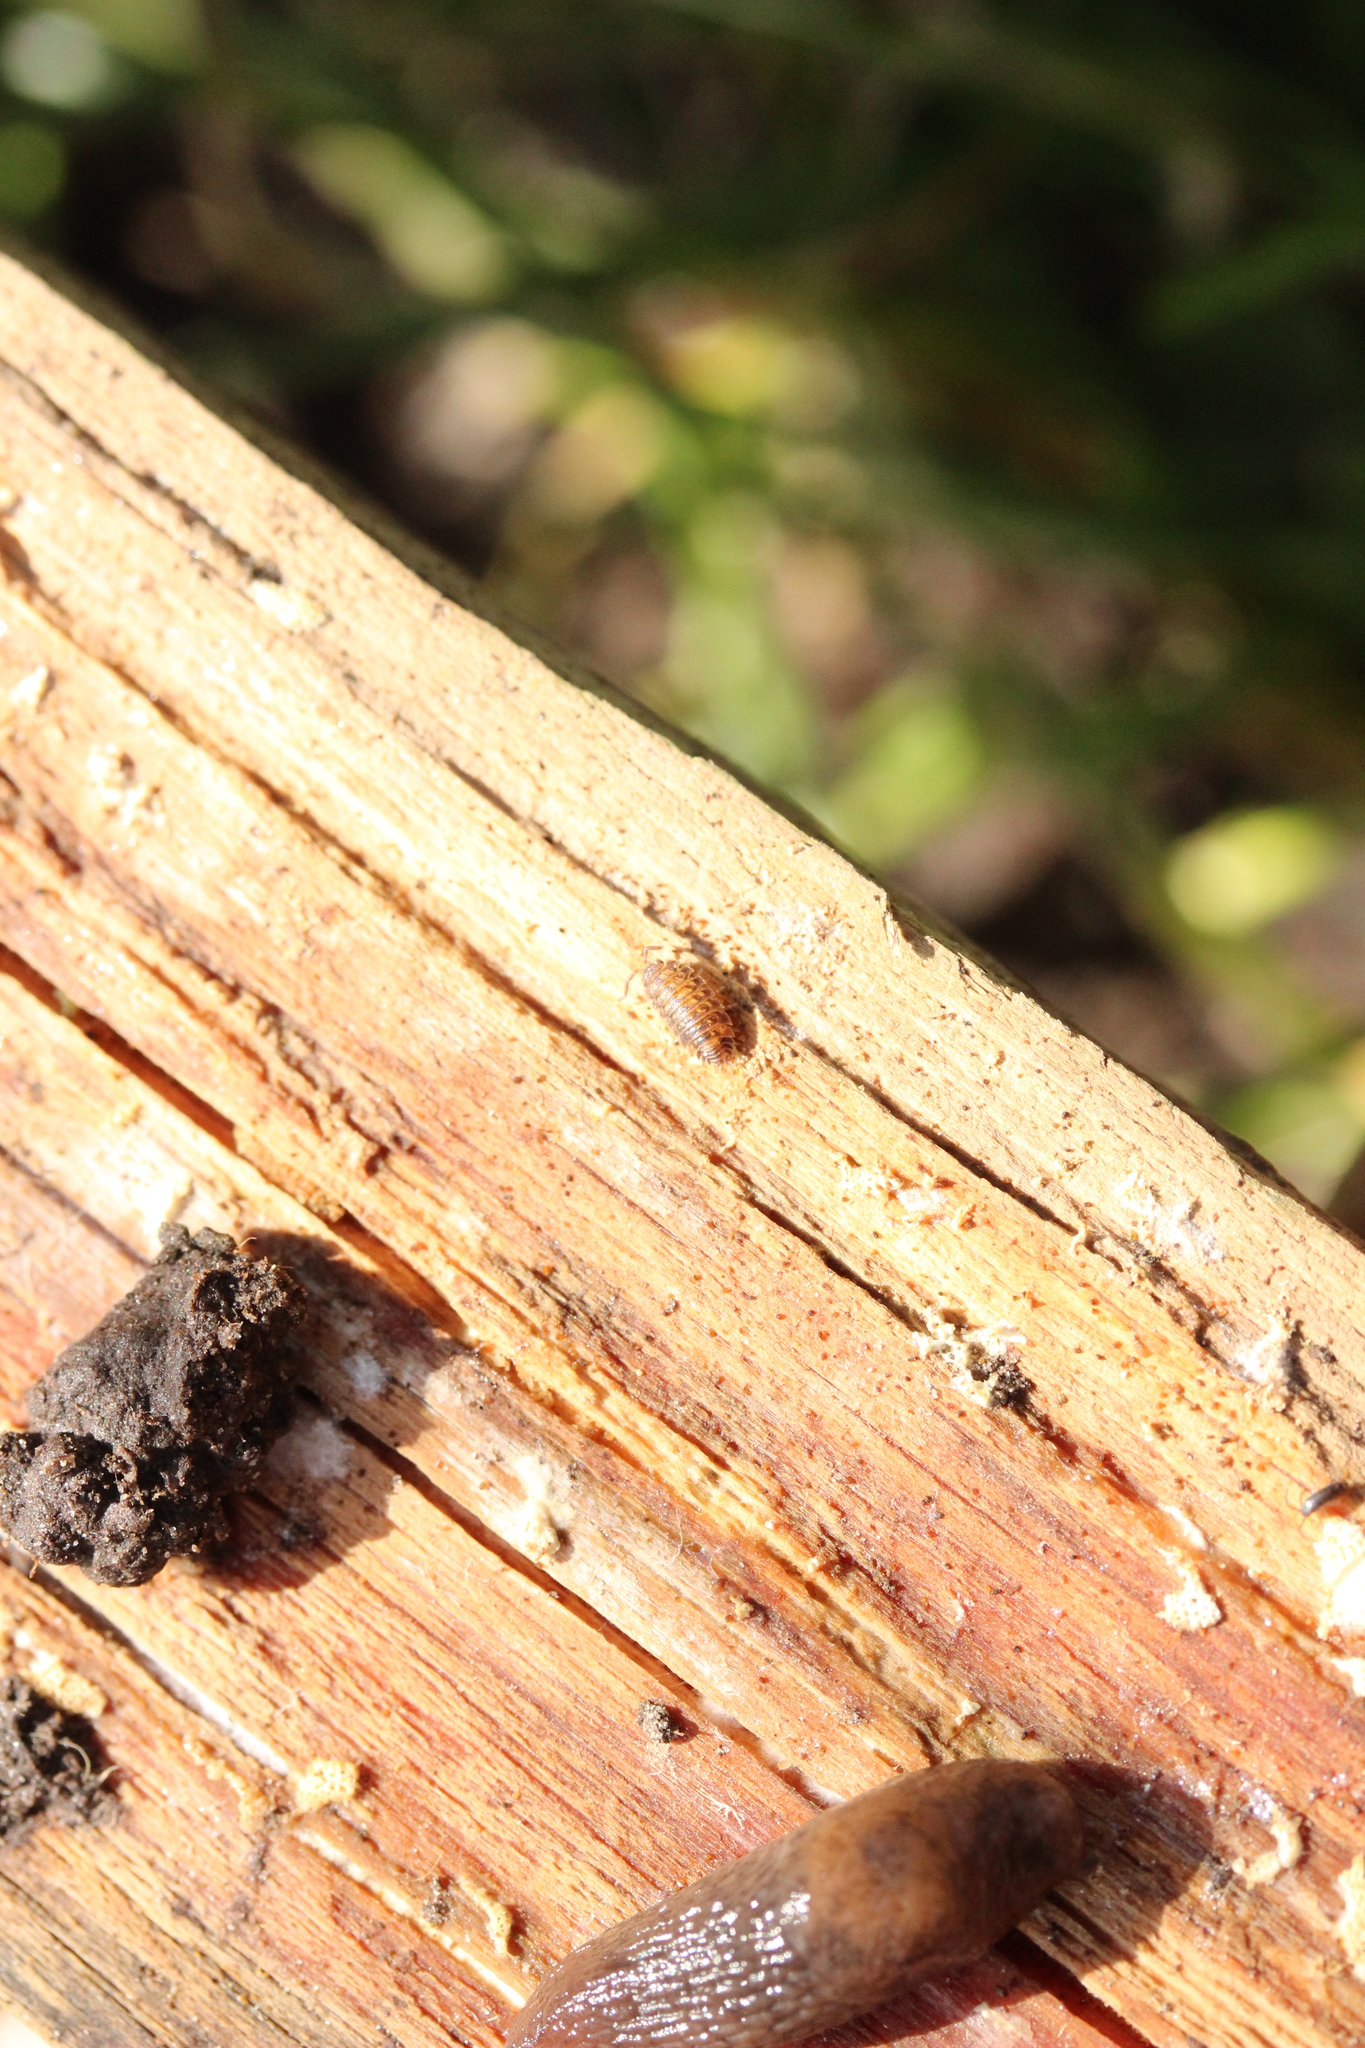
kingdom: Animalia
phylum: Arthropoda
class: Malacostraca
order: Isopoda
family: Oniscidae
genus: Oniscus
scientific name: Oniscus asellus
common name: Common shiny woodlouse
